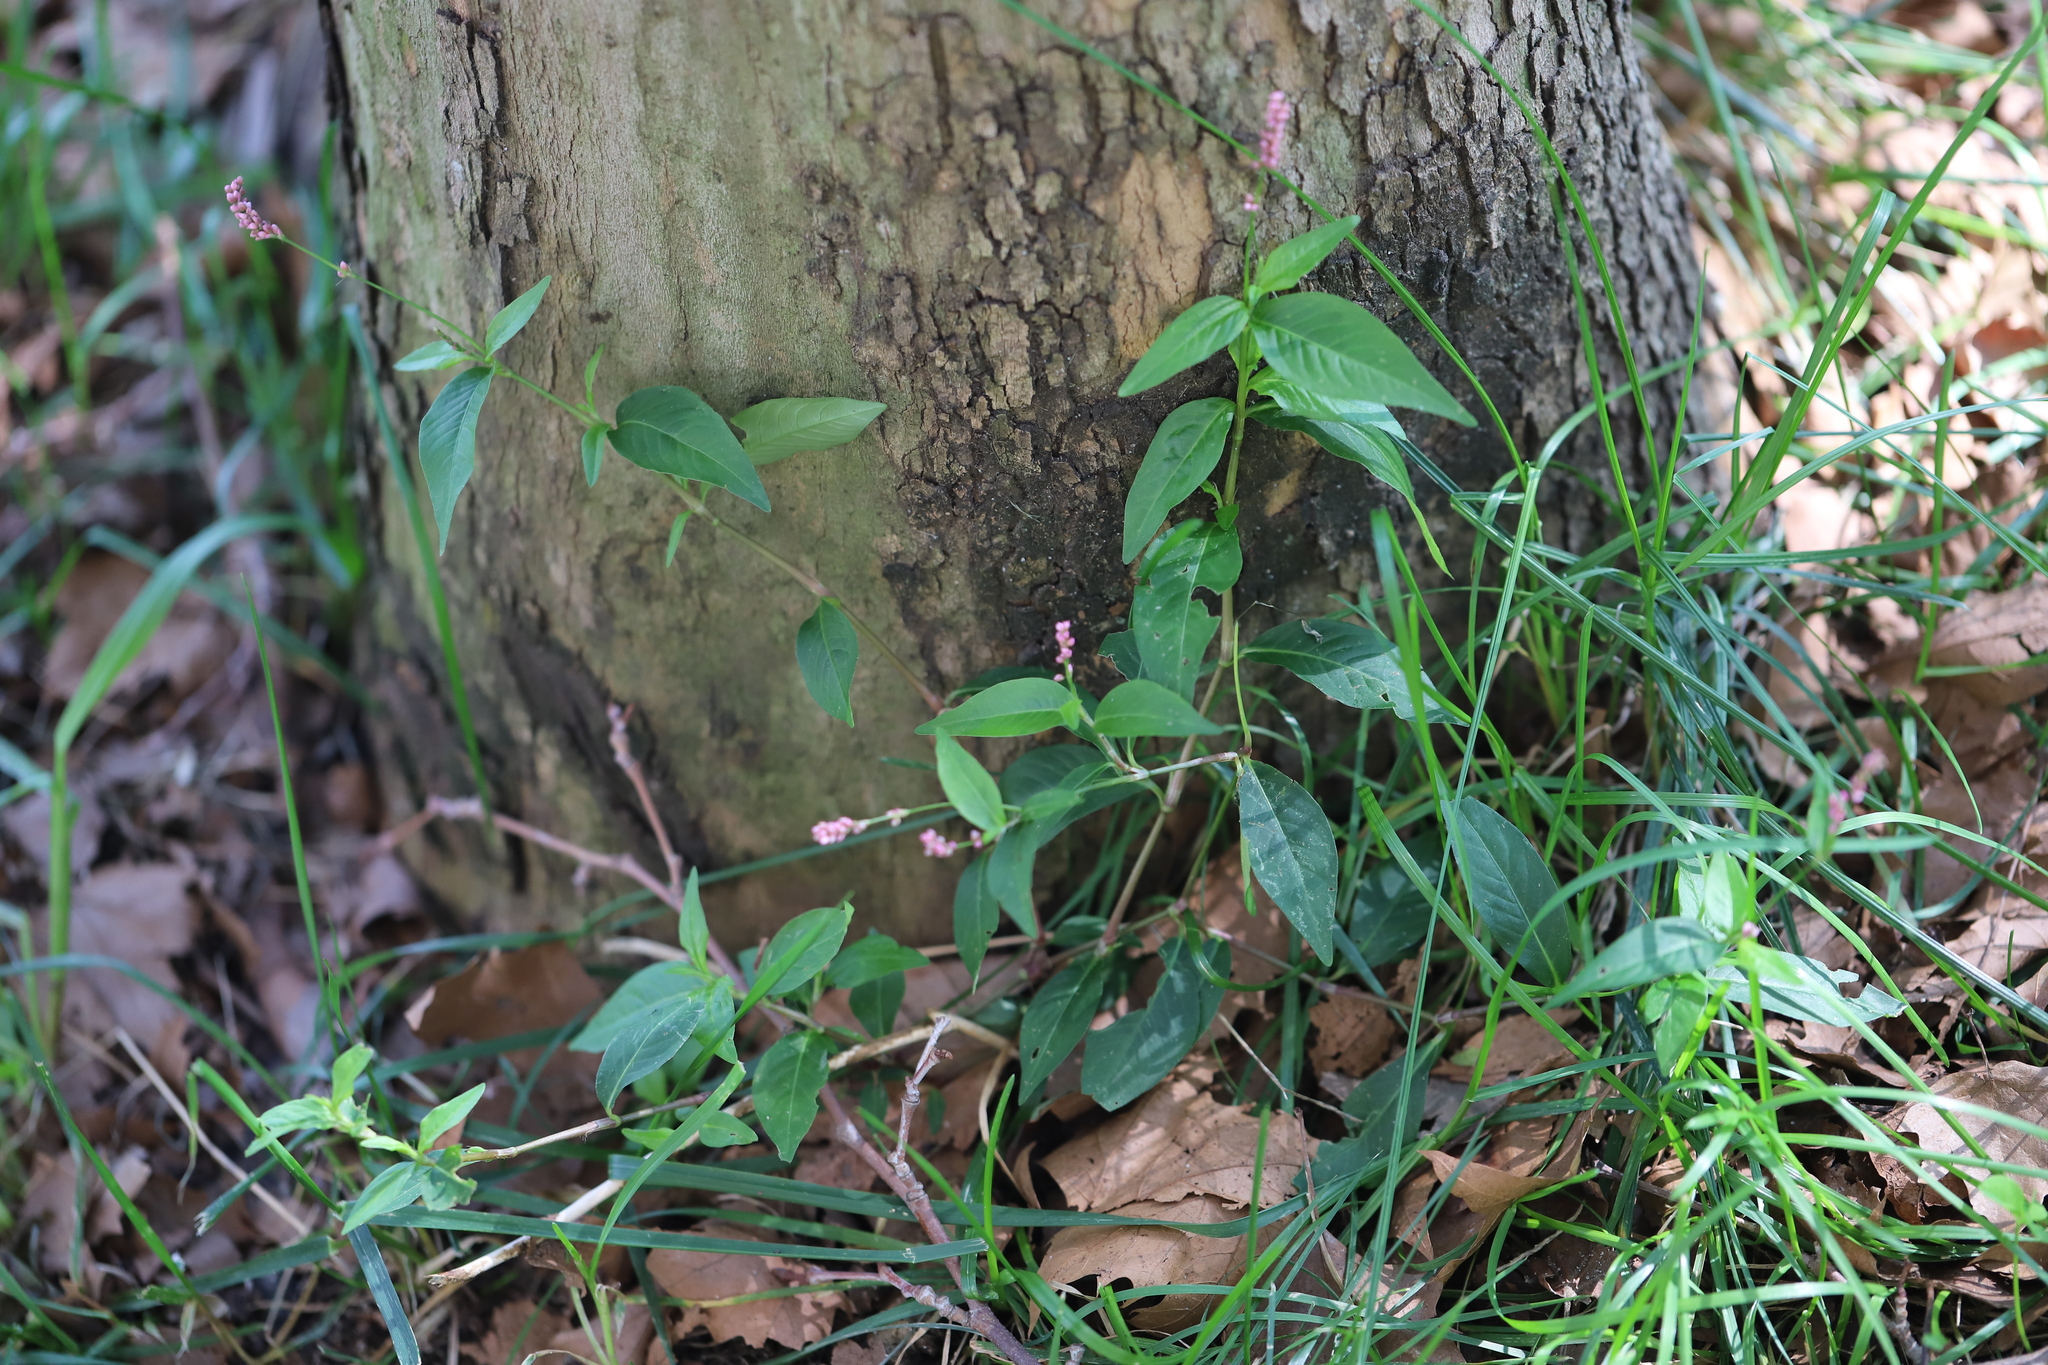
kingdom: Plantae
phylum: Tracheophyta
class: Magnoliopsida
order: Caryophyllales
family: Polygonaceae
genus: Persicaria
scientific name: Persicaria longiseta
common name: Bristly lady's-thumb
